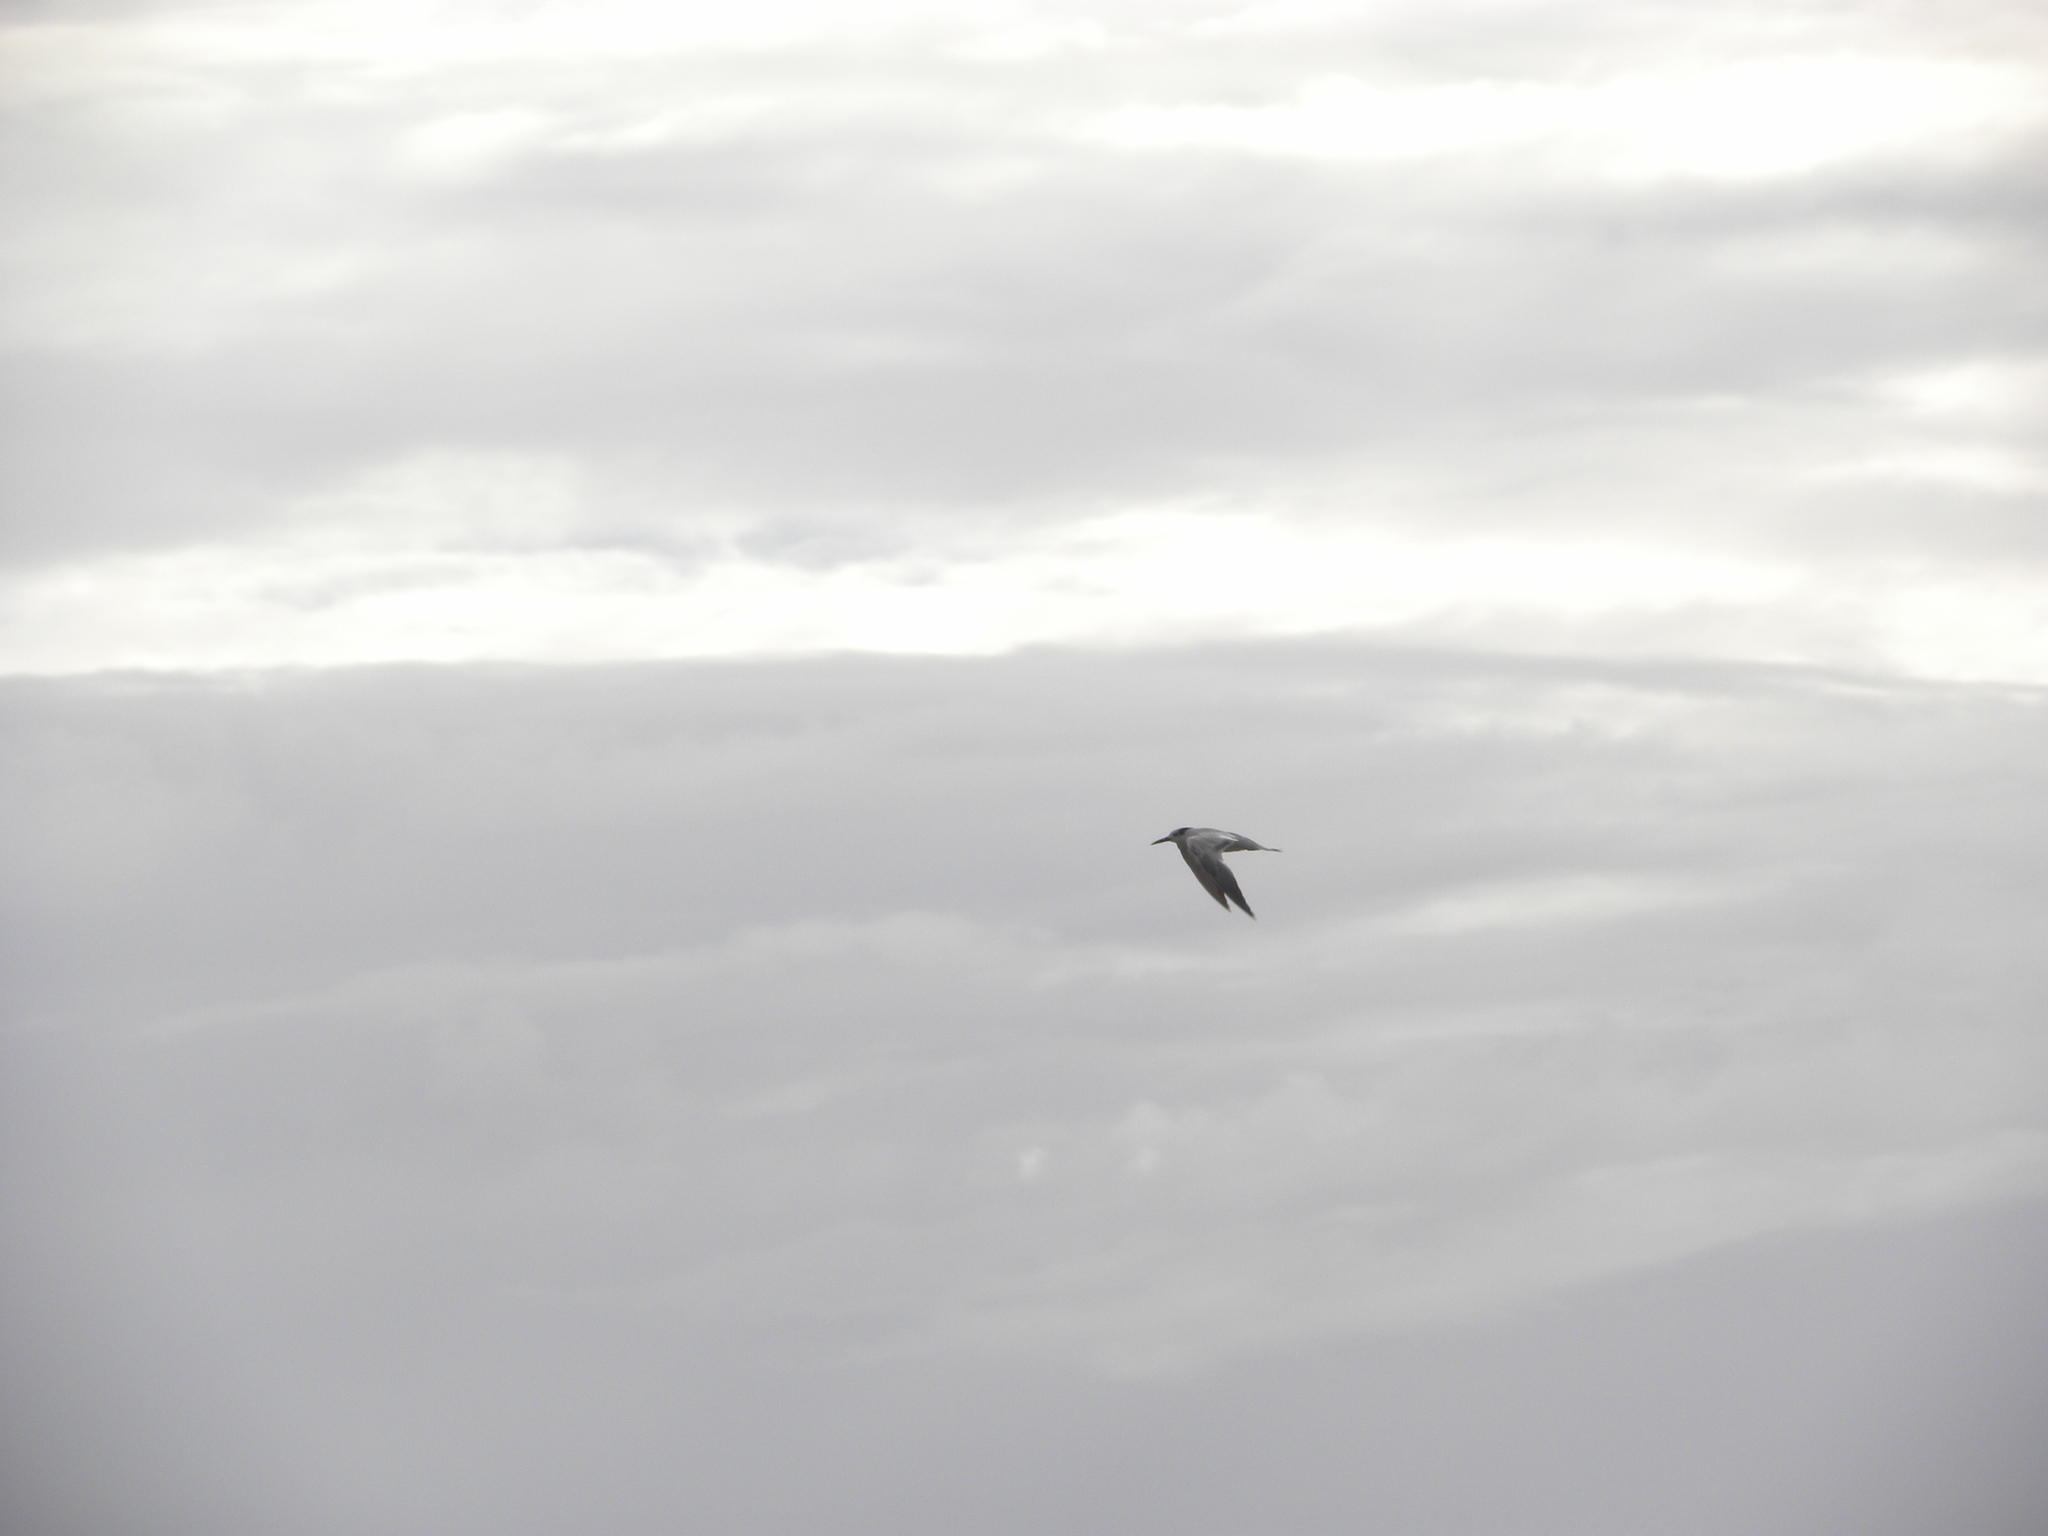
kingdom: Animalia
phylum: Chordata
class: Aves
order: Charadriiformes
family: Laridae
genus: Thalasseus
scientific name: Thalasseus sandvicensis
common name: Sandwich tern
